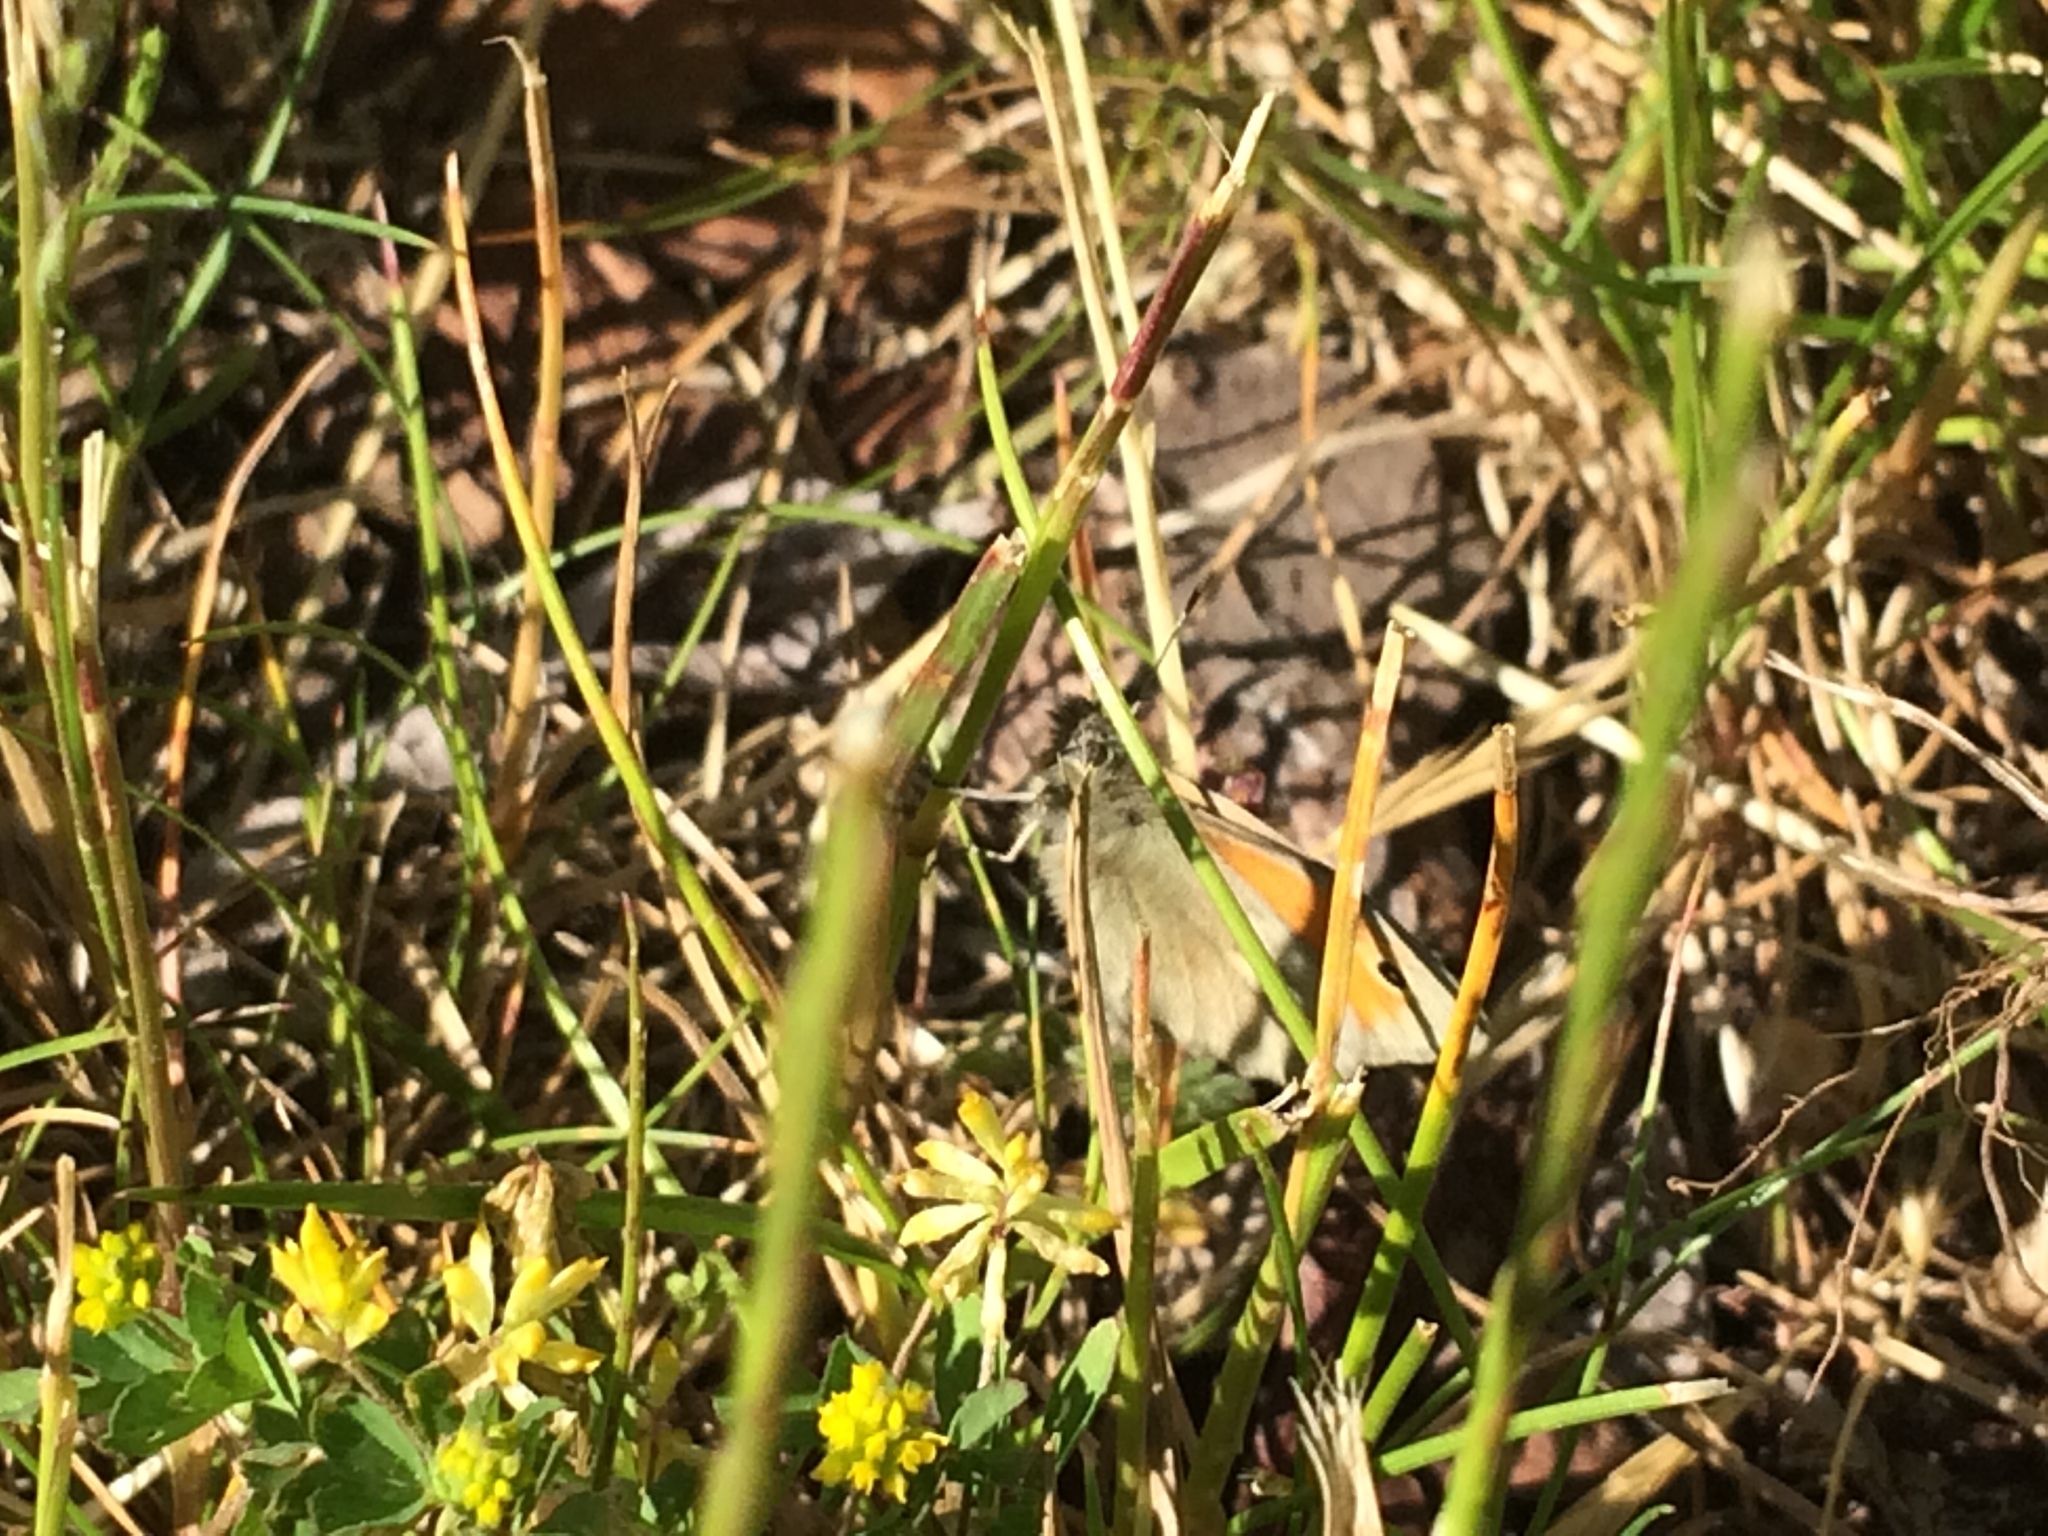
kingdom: Animalia
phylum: Arthropoda
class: Insecta
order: Lepidoptera
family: Nymphalidae
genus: Coenonympha
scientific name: Coenonympha pamphilus
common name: Small heath
